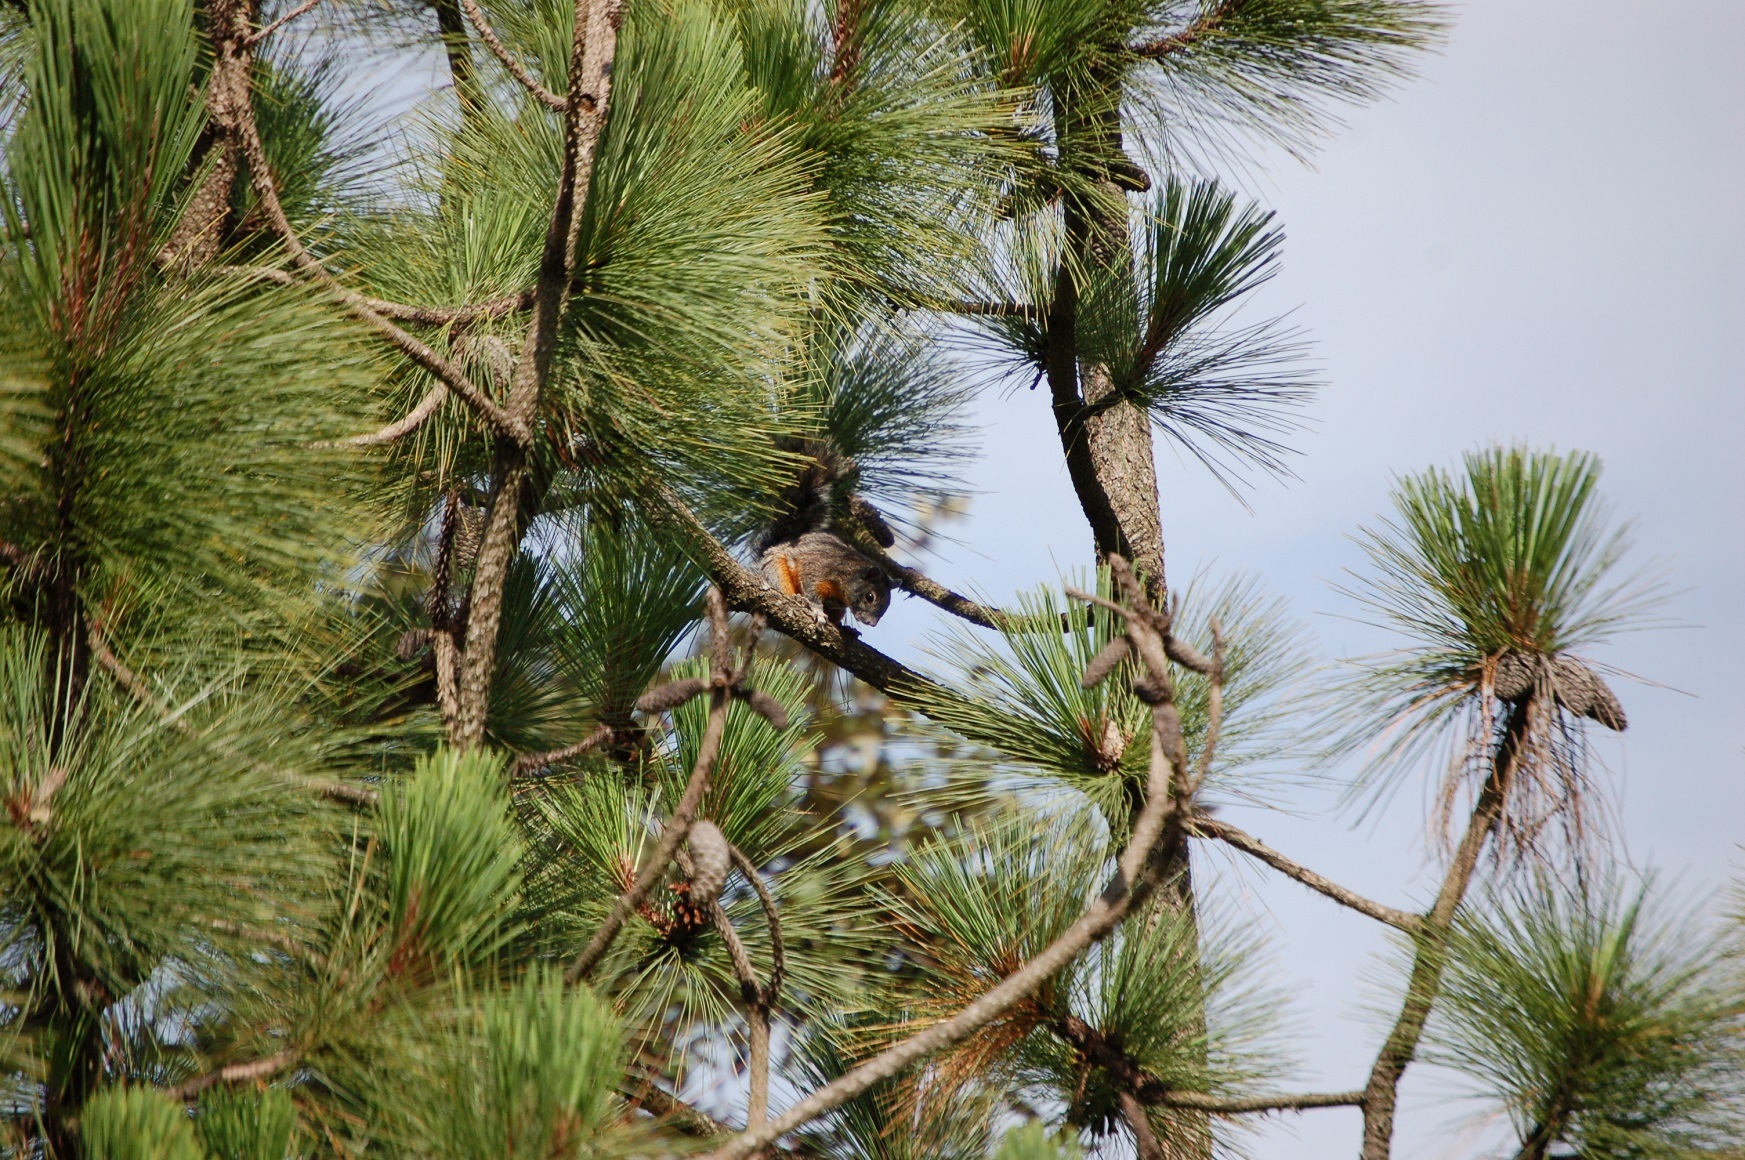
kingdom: Animalia
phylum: Chordata
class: Mammalia
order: Rodentia
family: Sciuridae
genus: Sciurus
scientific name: Sciurus aureogaster
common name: Red-bellied squirrel
